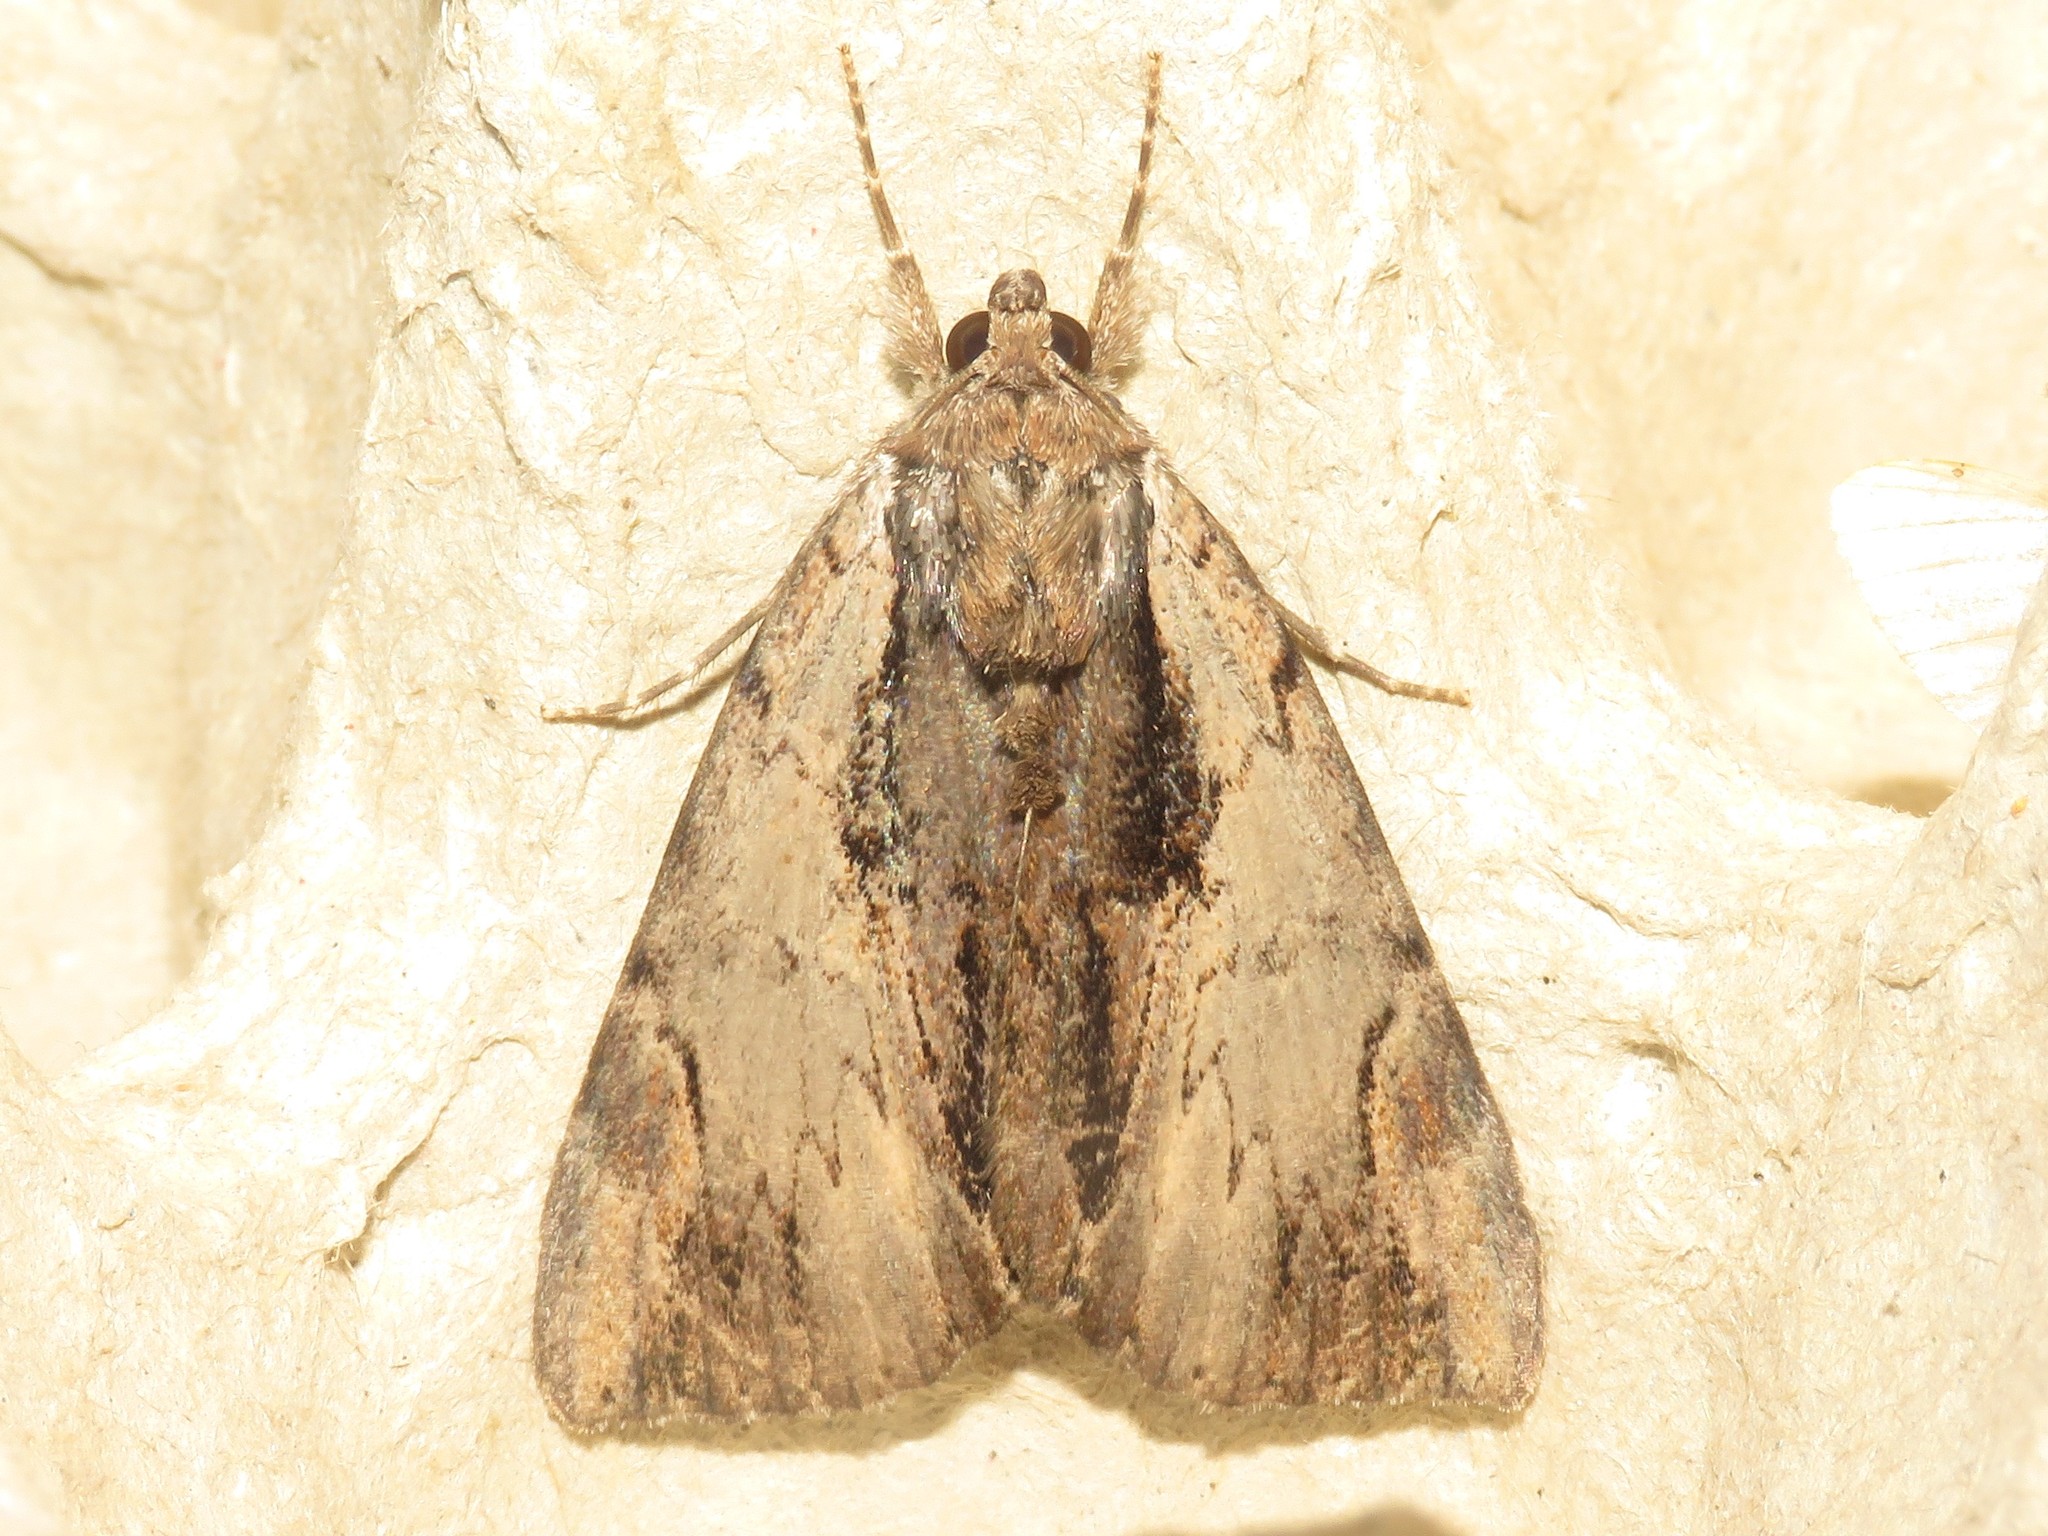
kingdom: Animalia
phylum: Arthropoda
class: Insecta
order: Lepidoptera
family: Erebidae
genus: Catocala
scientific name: Catocala ultronia
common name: Ultronia underwing
